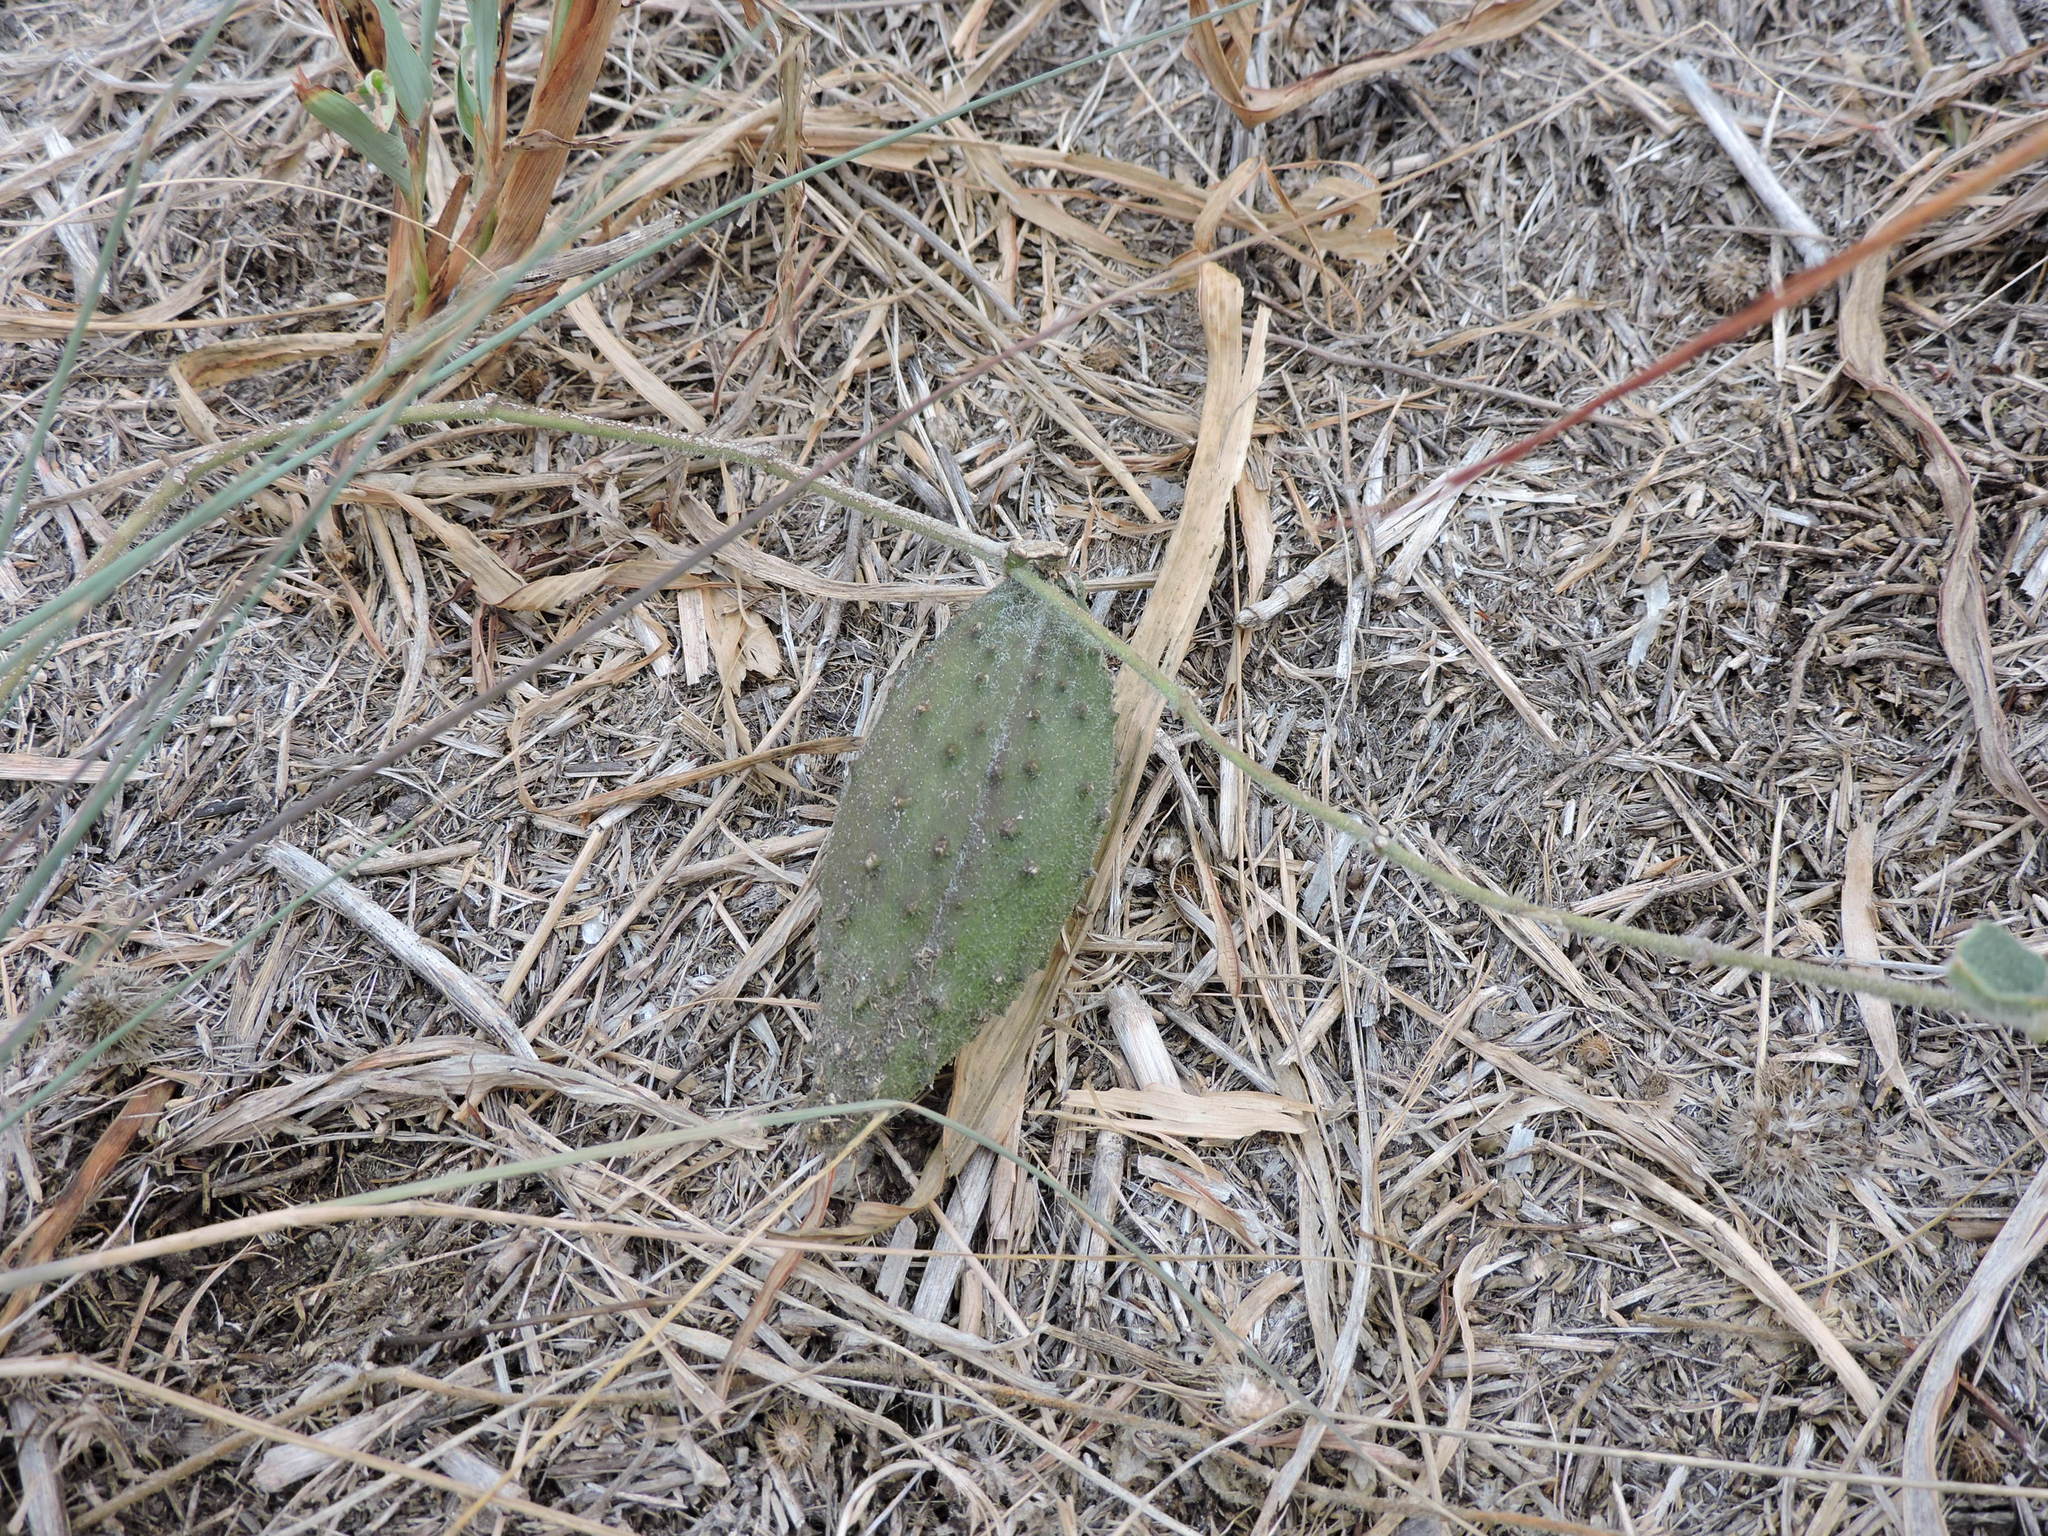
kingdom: Plantae
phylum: Tracheophyta
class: Magnoliopsida
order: Gentianales
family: Apocynaceae
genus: Chthamalia
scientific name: Chthamalia biflora
